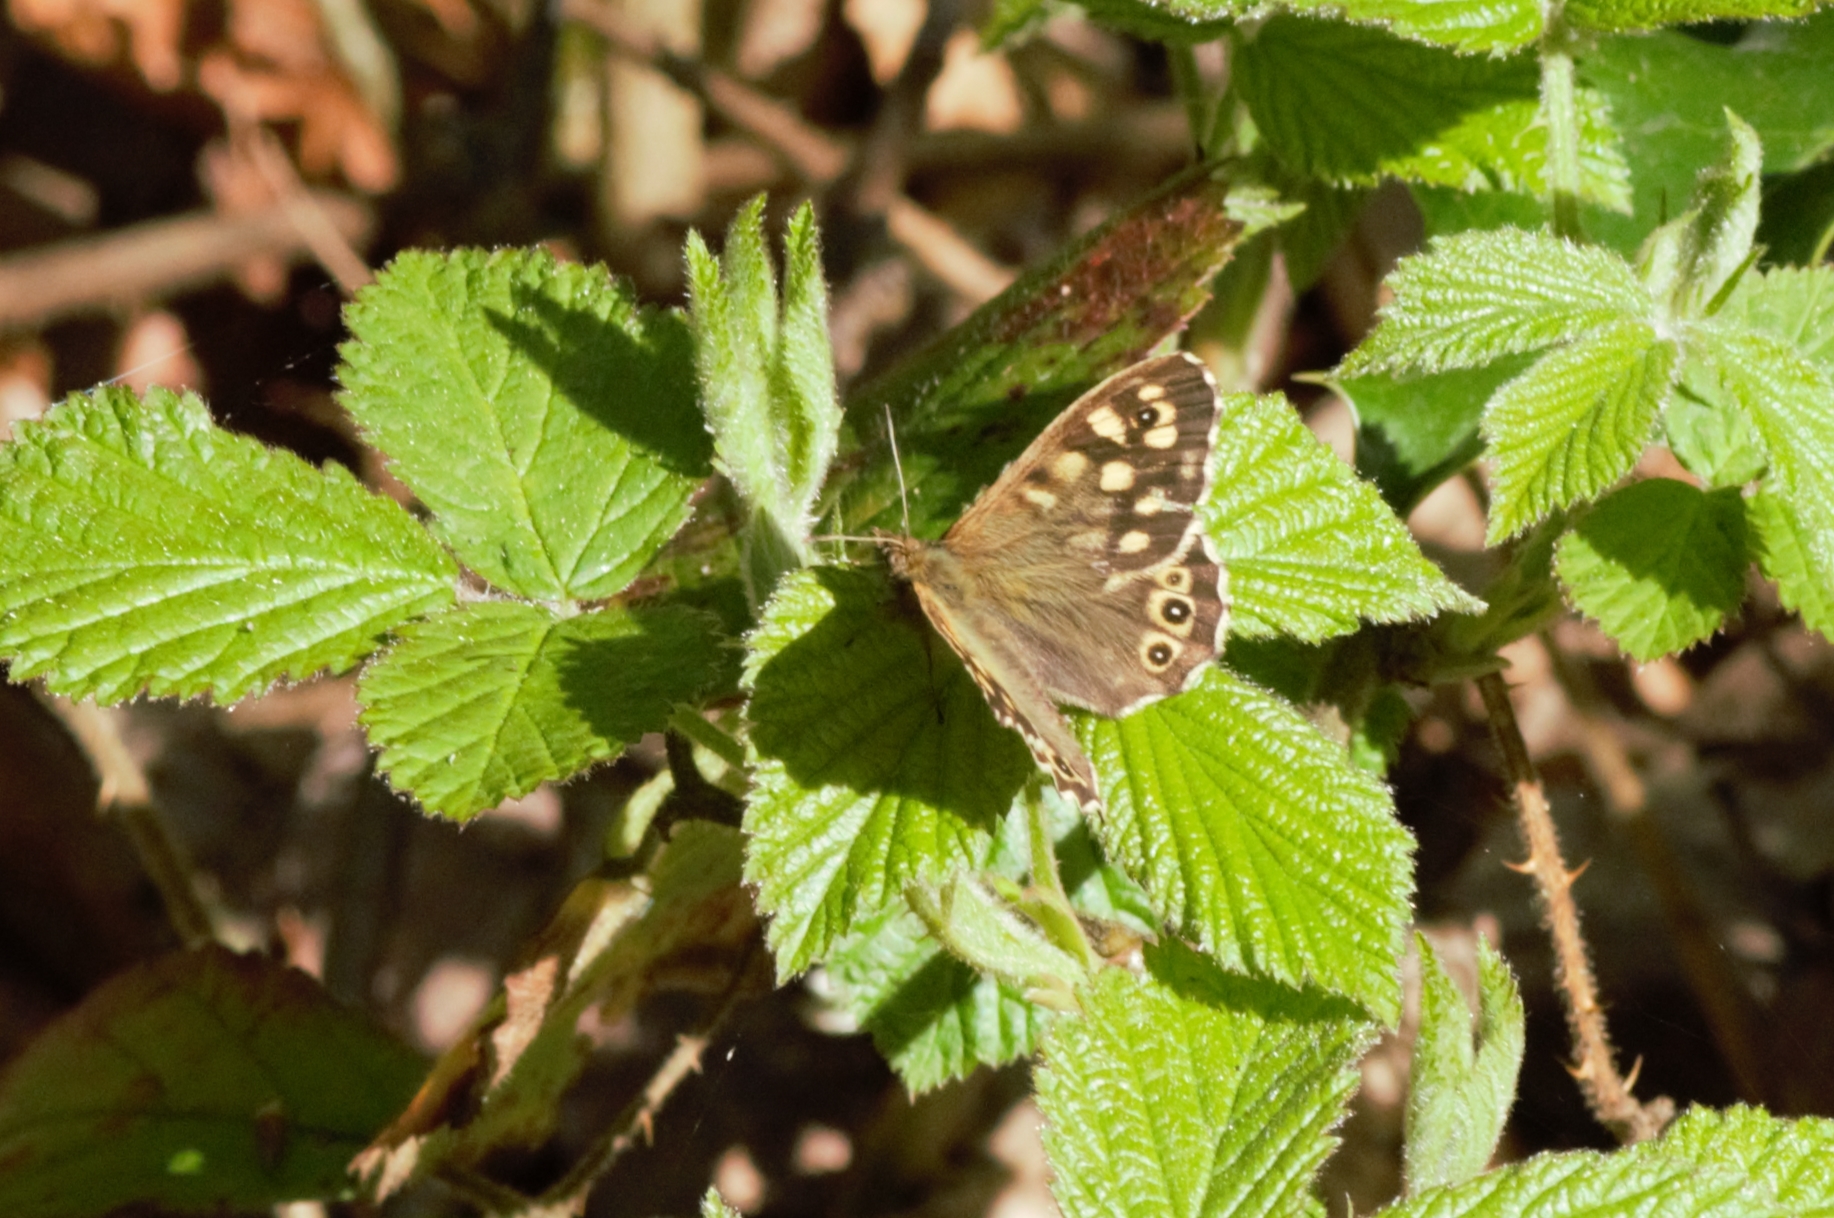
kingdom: Animalia
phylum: Arthropoda
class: Insecta
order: Lepidoptera
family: Nymphalidae
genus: Pararge
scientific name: Pararge aegeria
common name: Speckled wood
